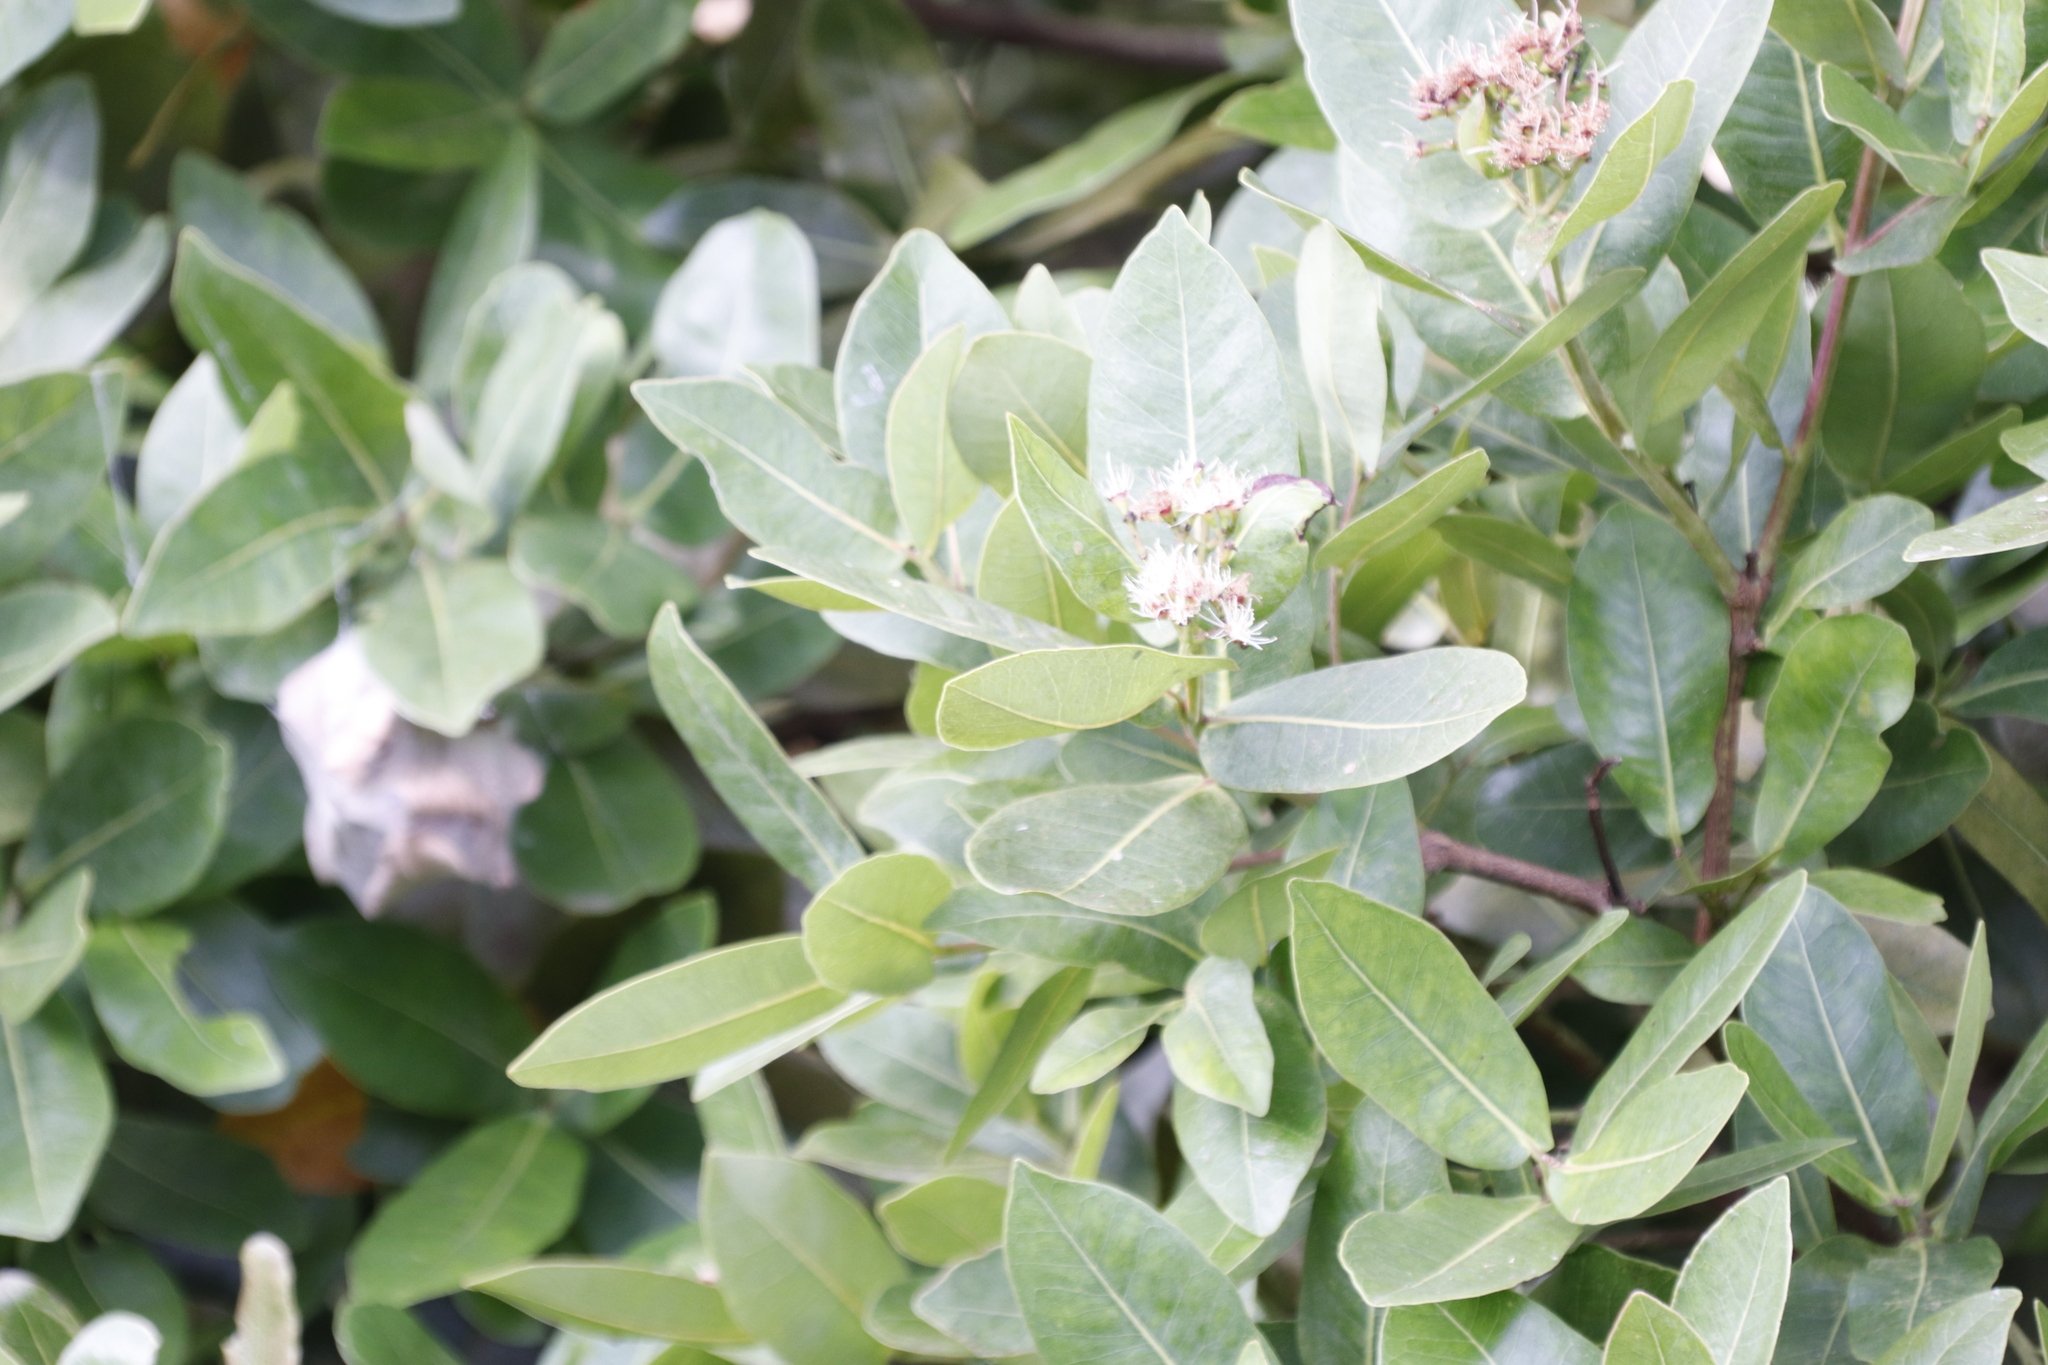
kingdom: Plantae
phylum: Tracheophyta
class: Magnoliopsida
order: Myrtales
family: Myrtaceae
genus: Syzygium
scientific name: Syzygium cordatum
